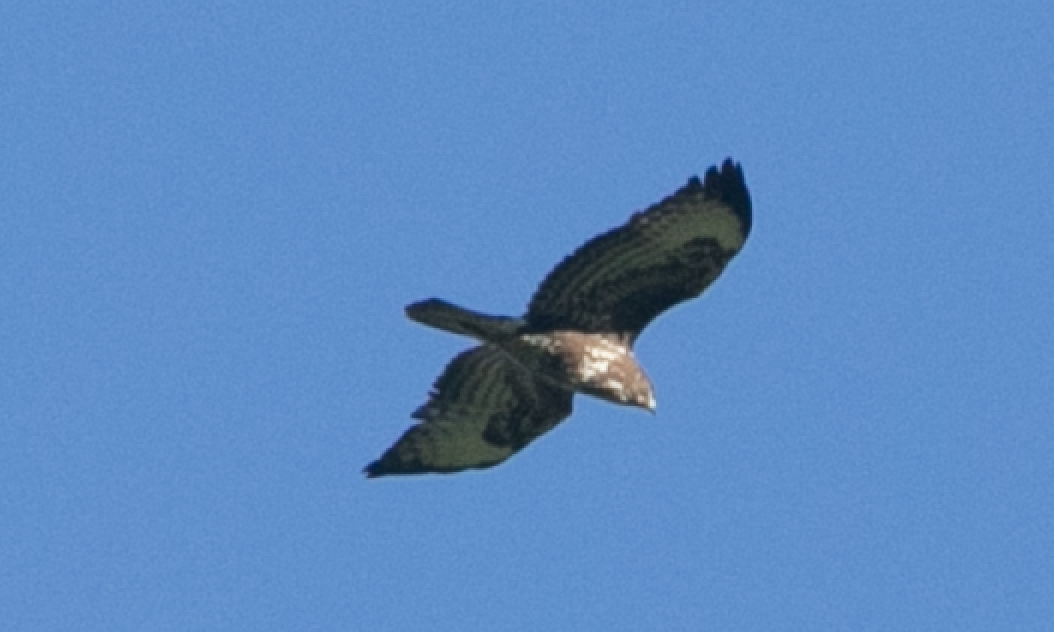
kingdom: Animalia
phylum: Chordata
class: Aves
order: Accipitriformes
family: Accipitridae
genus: Buteo
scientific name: Buteo buteo
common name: Common buzzard
